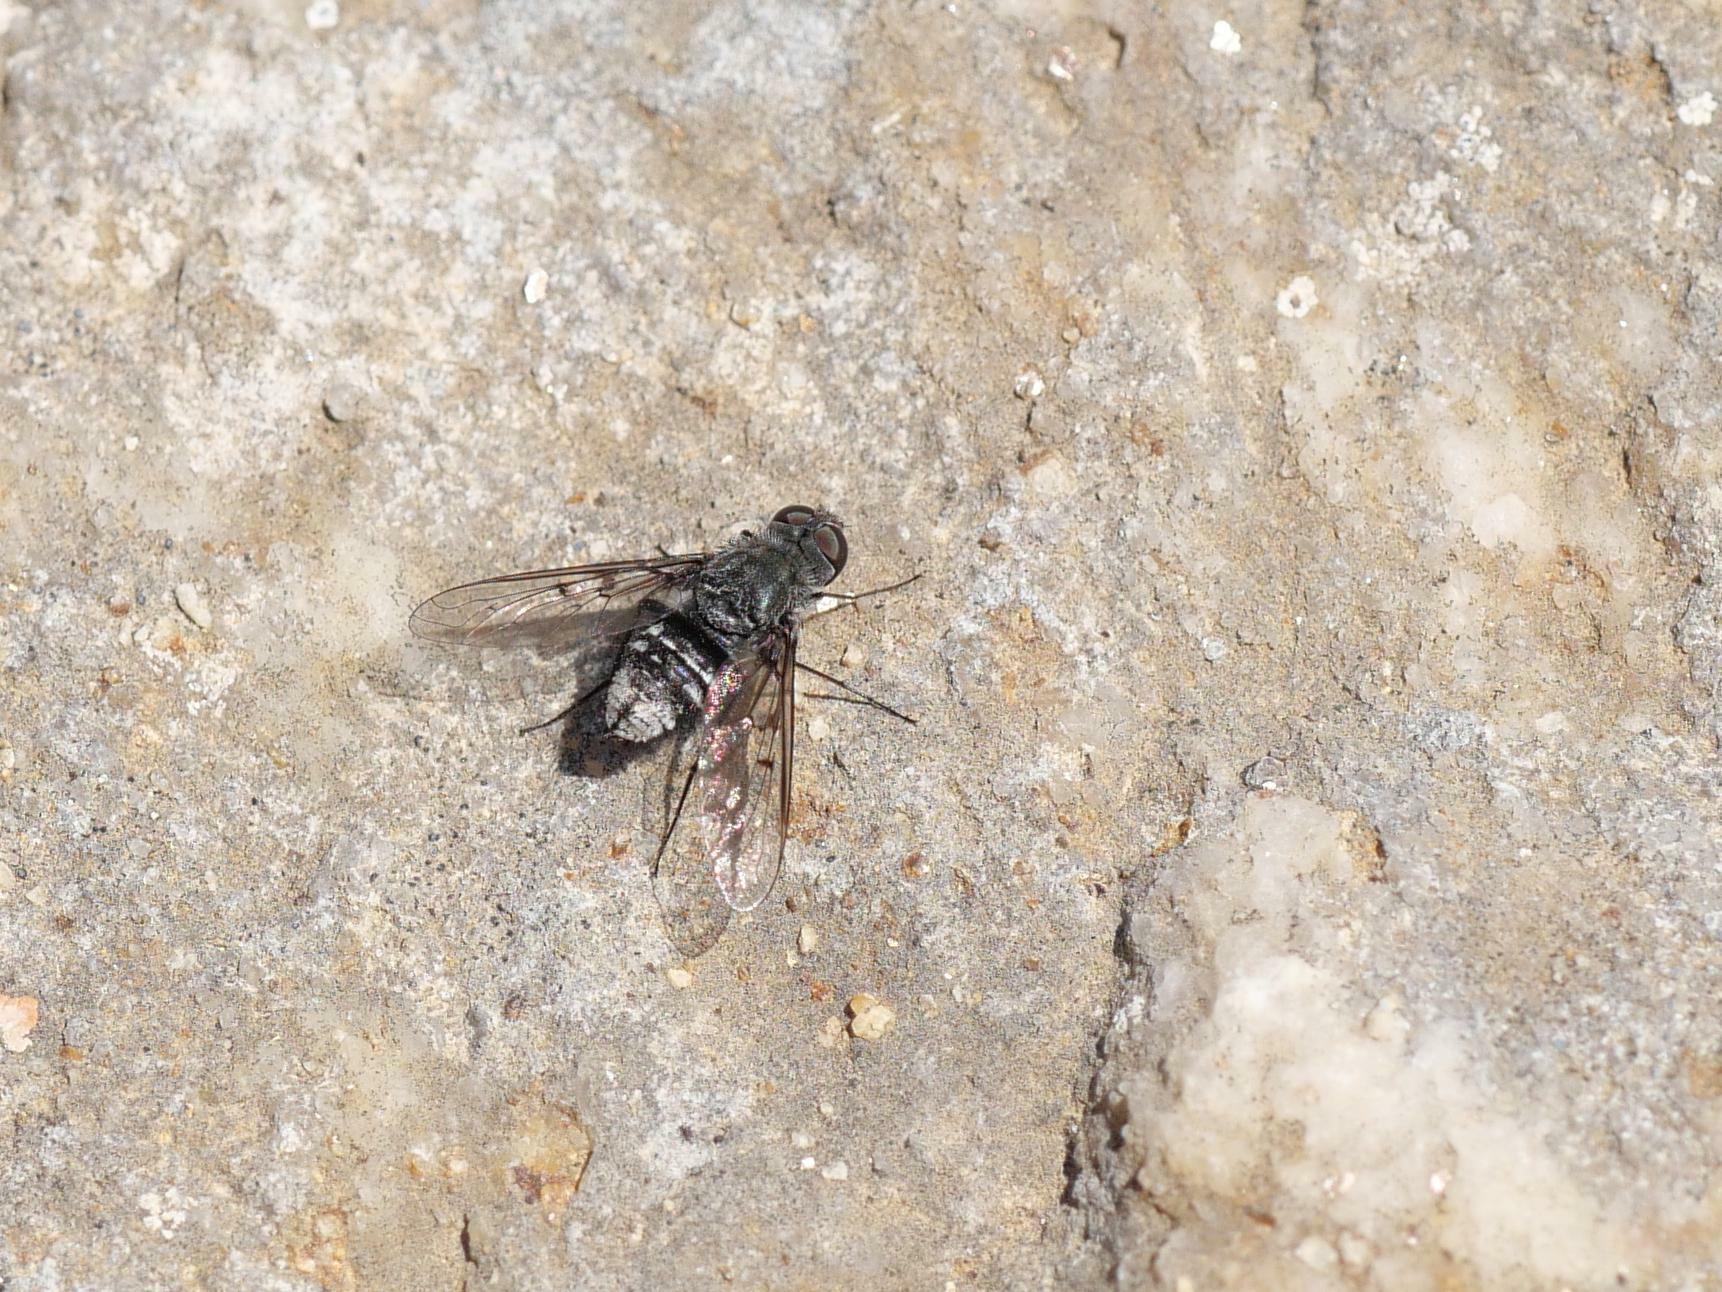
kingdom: Animalia
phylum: Arthropoda
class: Insecta
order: Diptera
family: Bombyliidae
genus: Spogostylum
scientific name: Spogostylum tripunctatum
